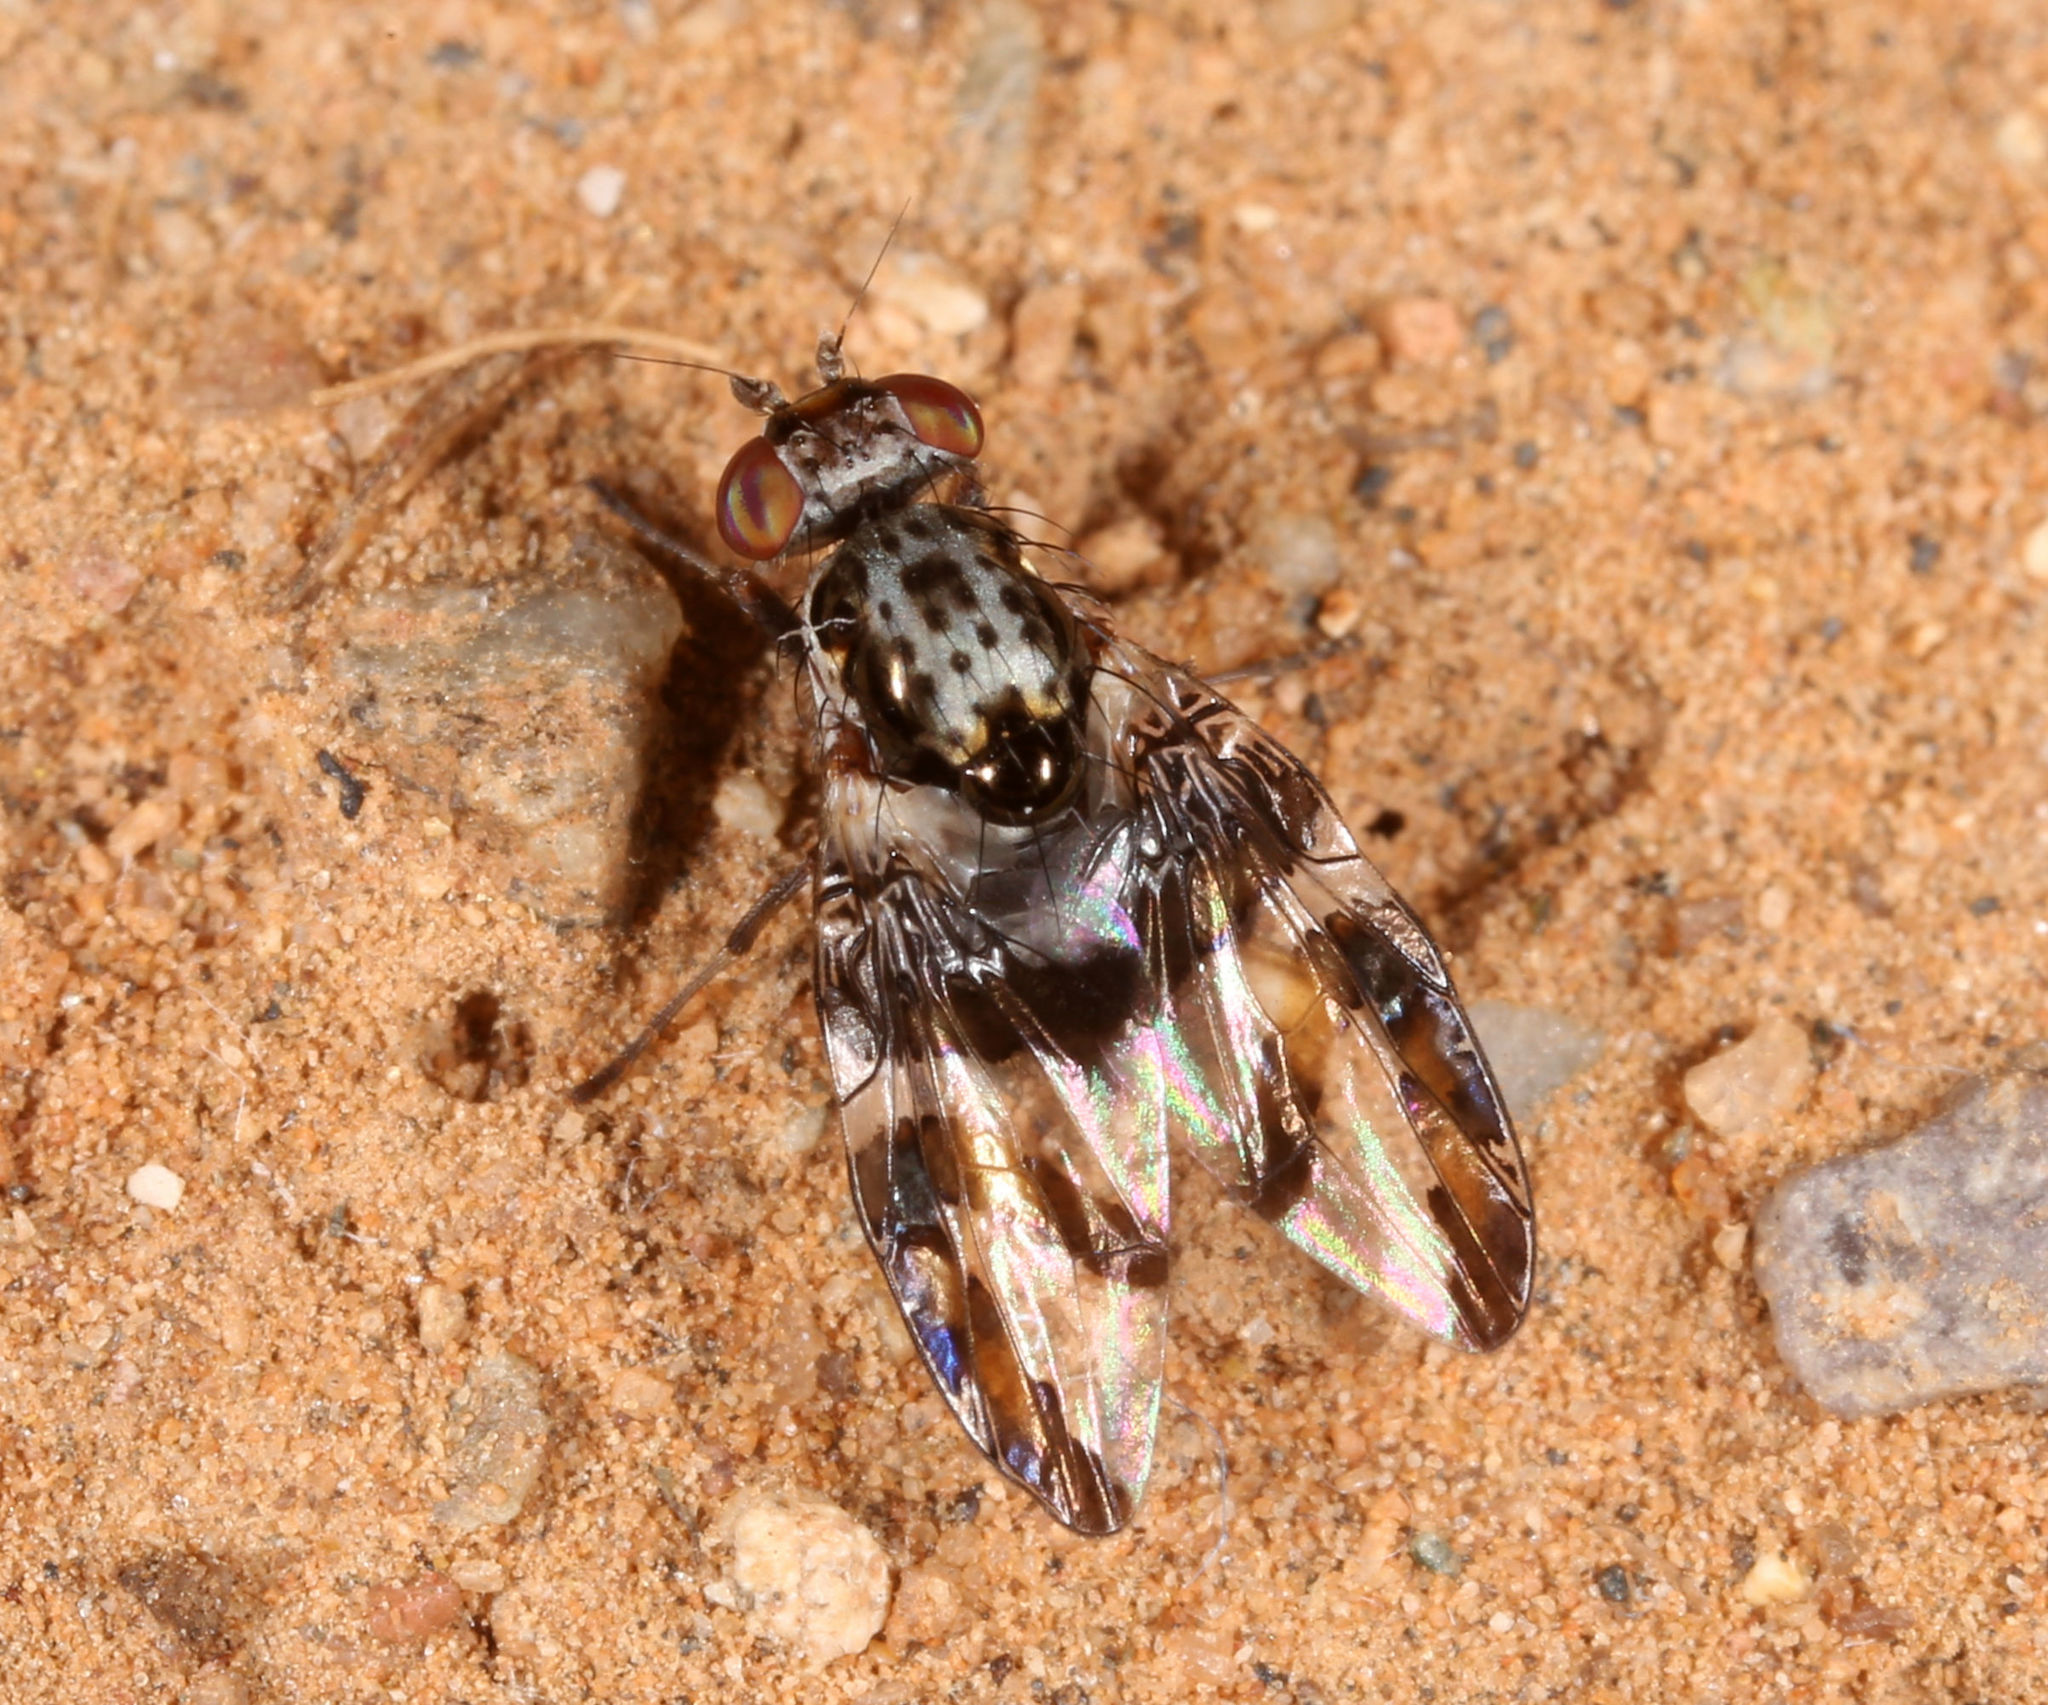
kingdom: Animalia
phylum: Arthropoda
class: Insecta
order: Diptera
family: Ulidiidae
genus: Dyscrasis
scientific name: Dyscrasis hendeli
